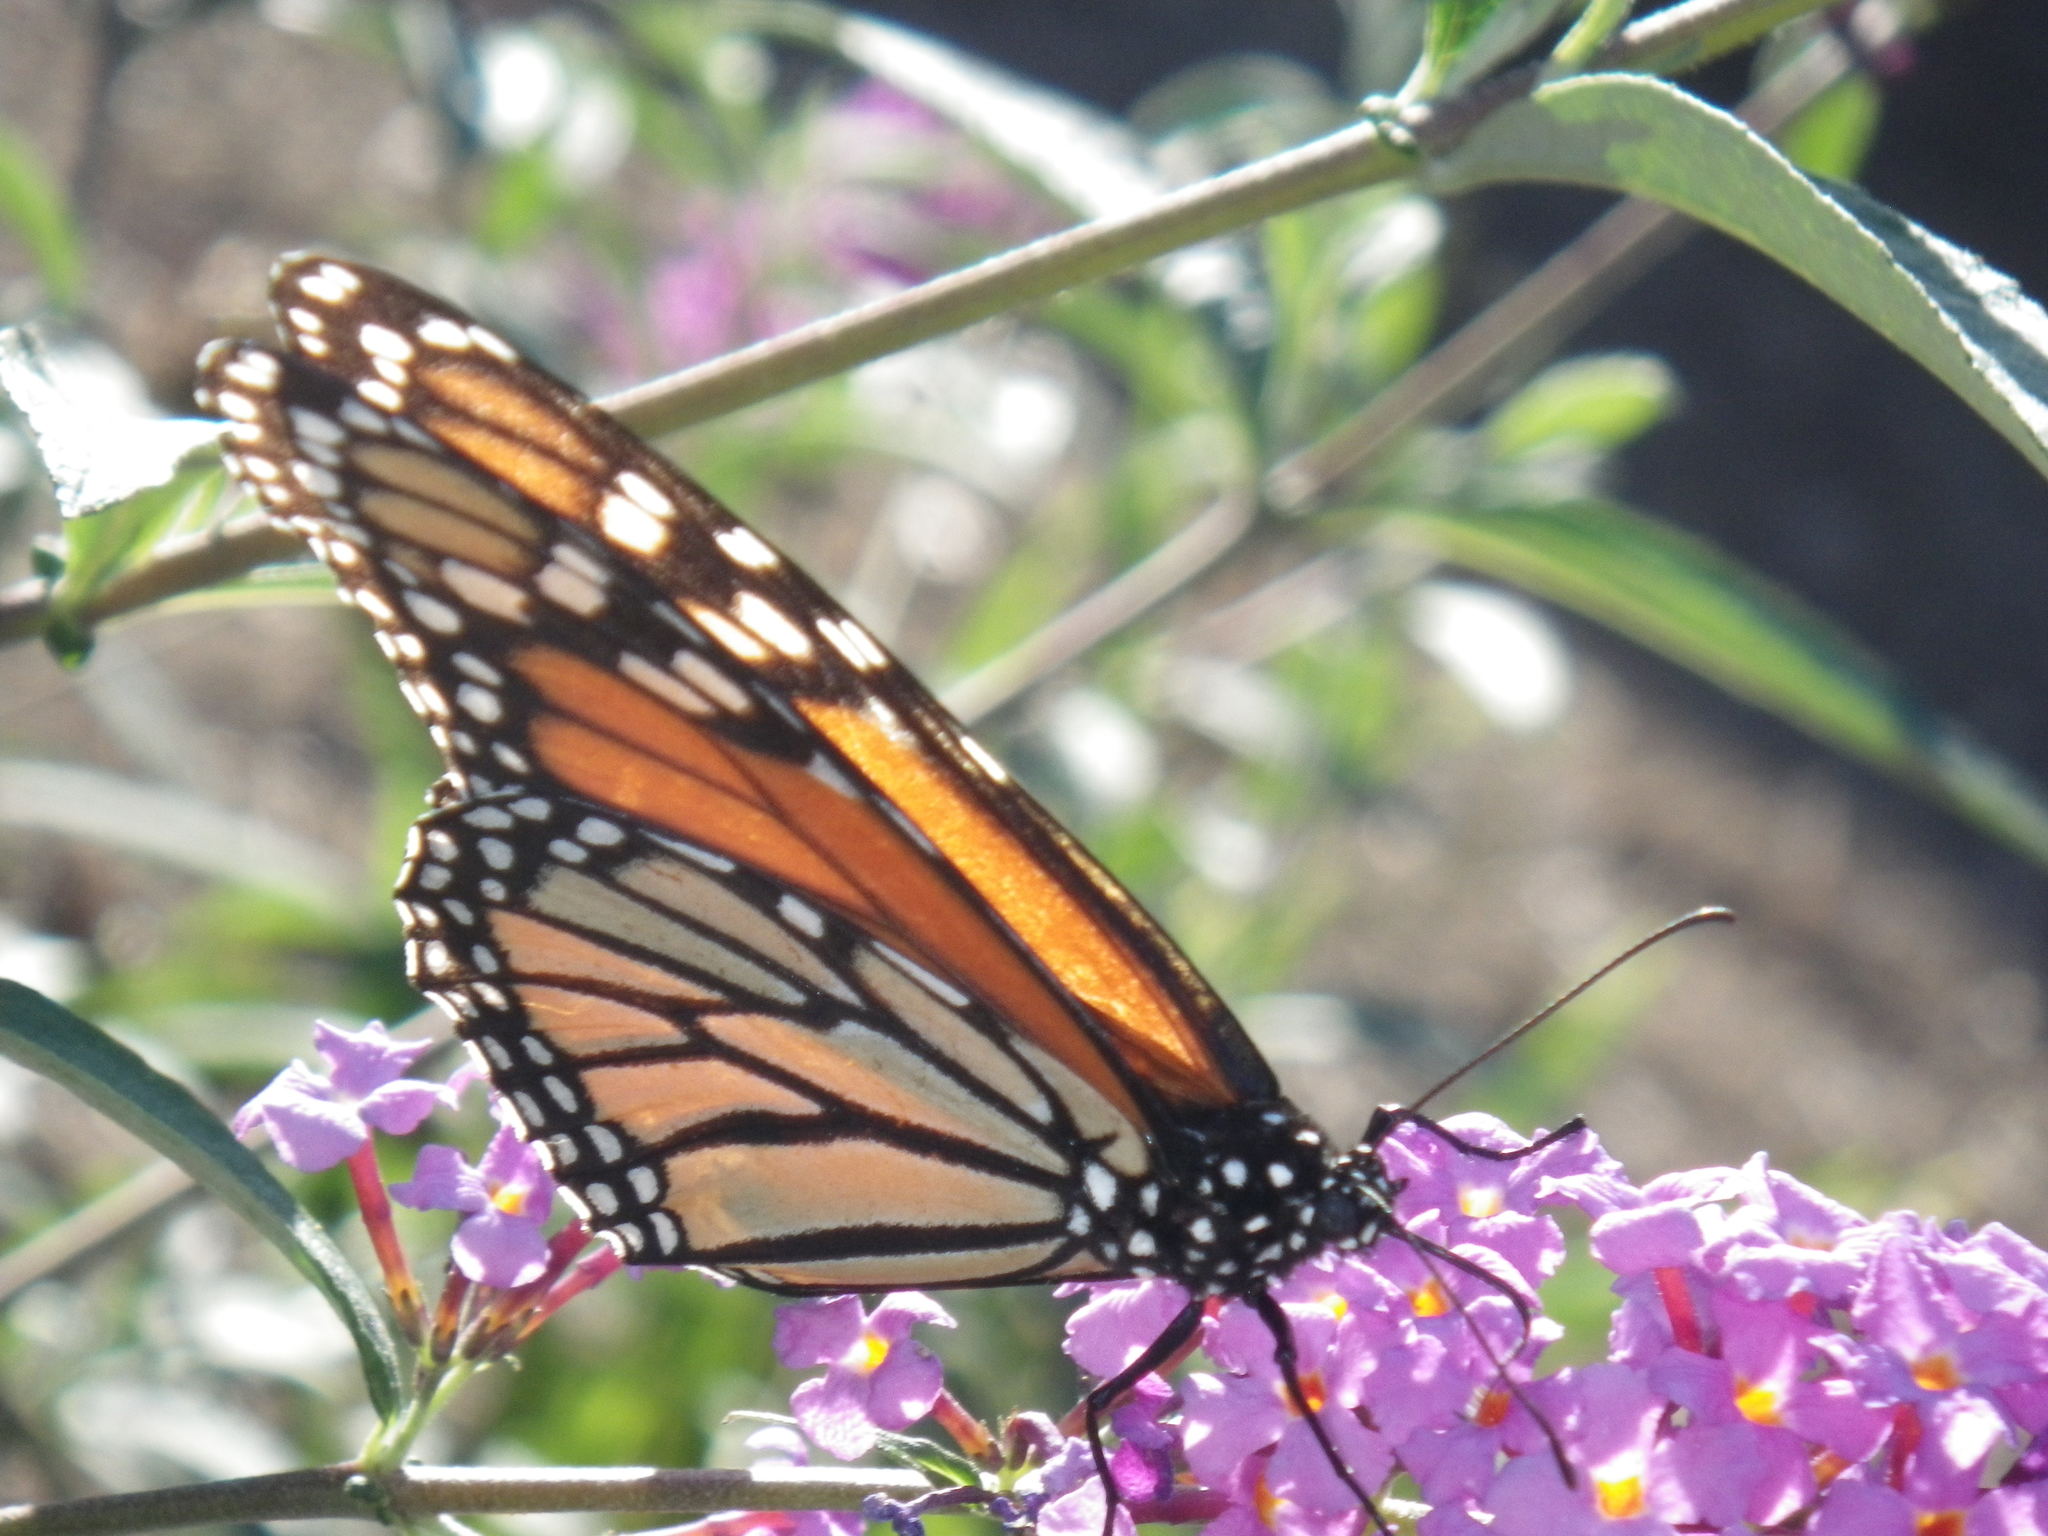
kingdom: Animalia
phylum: Arthropoda
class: Insecta
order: Lepidoptera
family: Nymphalidae
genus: Danaus
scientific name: Danaus plexippus
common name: Monarch
